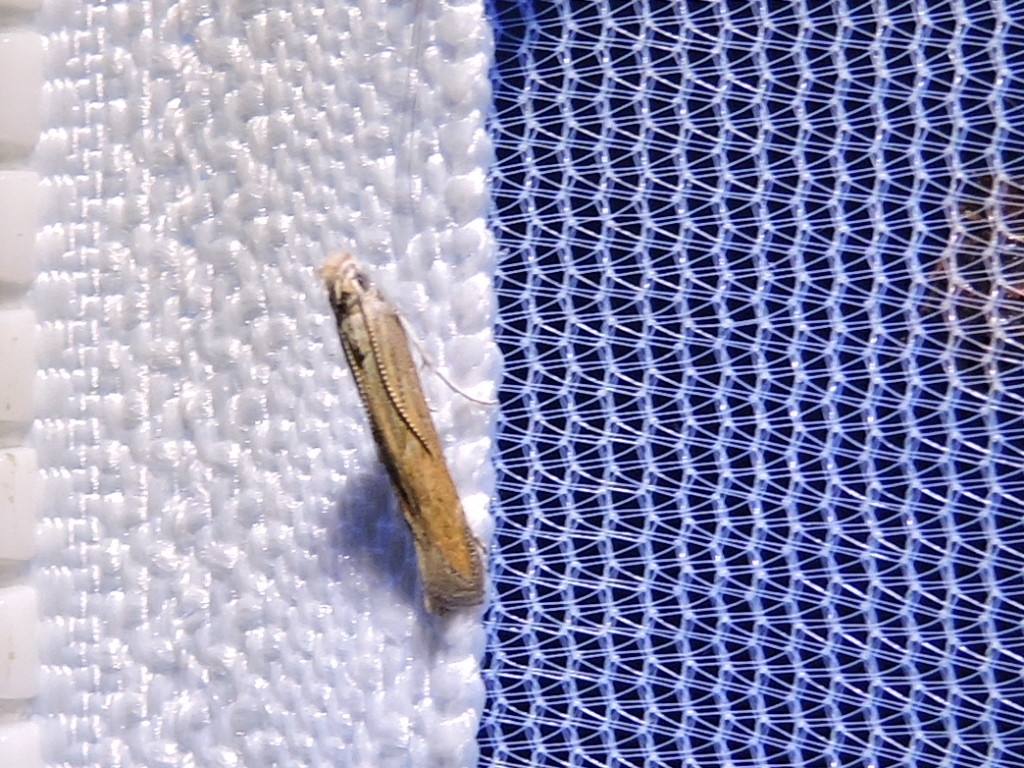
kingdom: Animalia
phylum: Arthropoda
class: Insecta
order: Lepidoptera
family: Gelechiidae
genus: Isophrictis
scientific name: Isophrictis similiella
